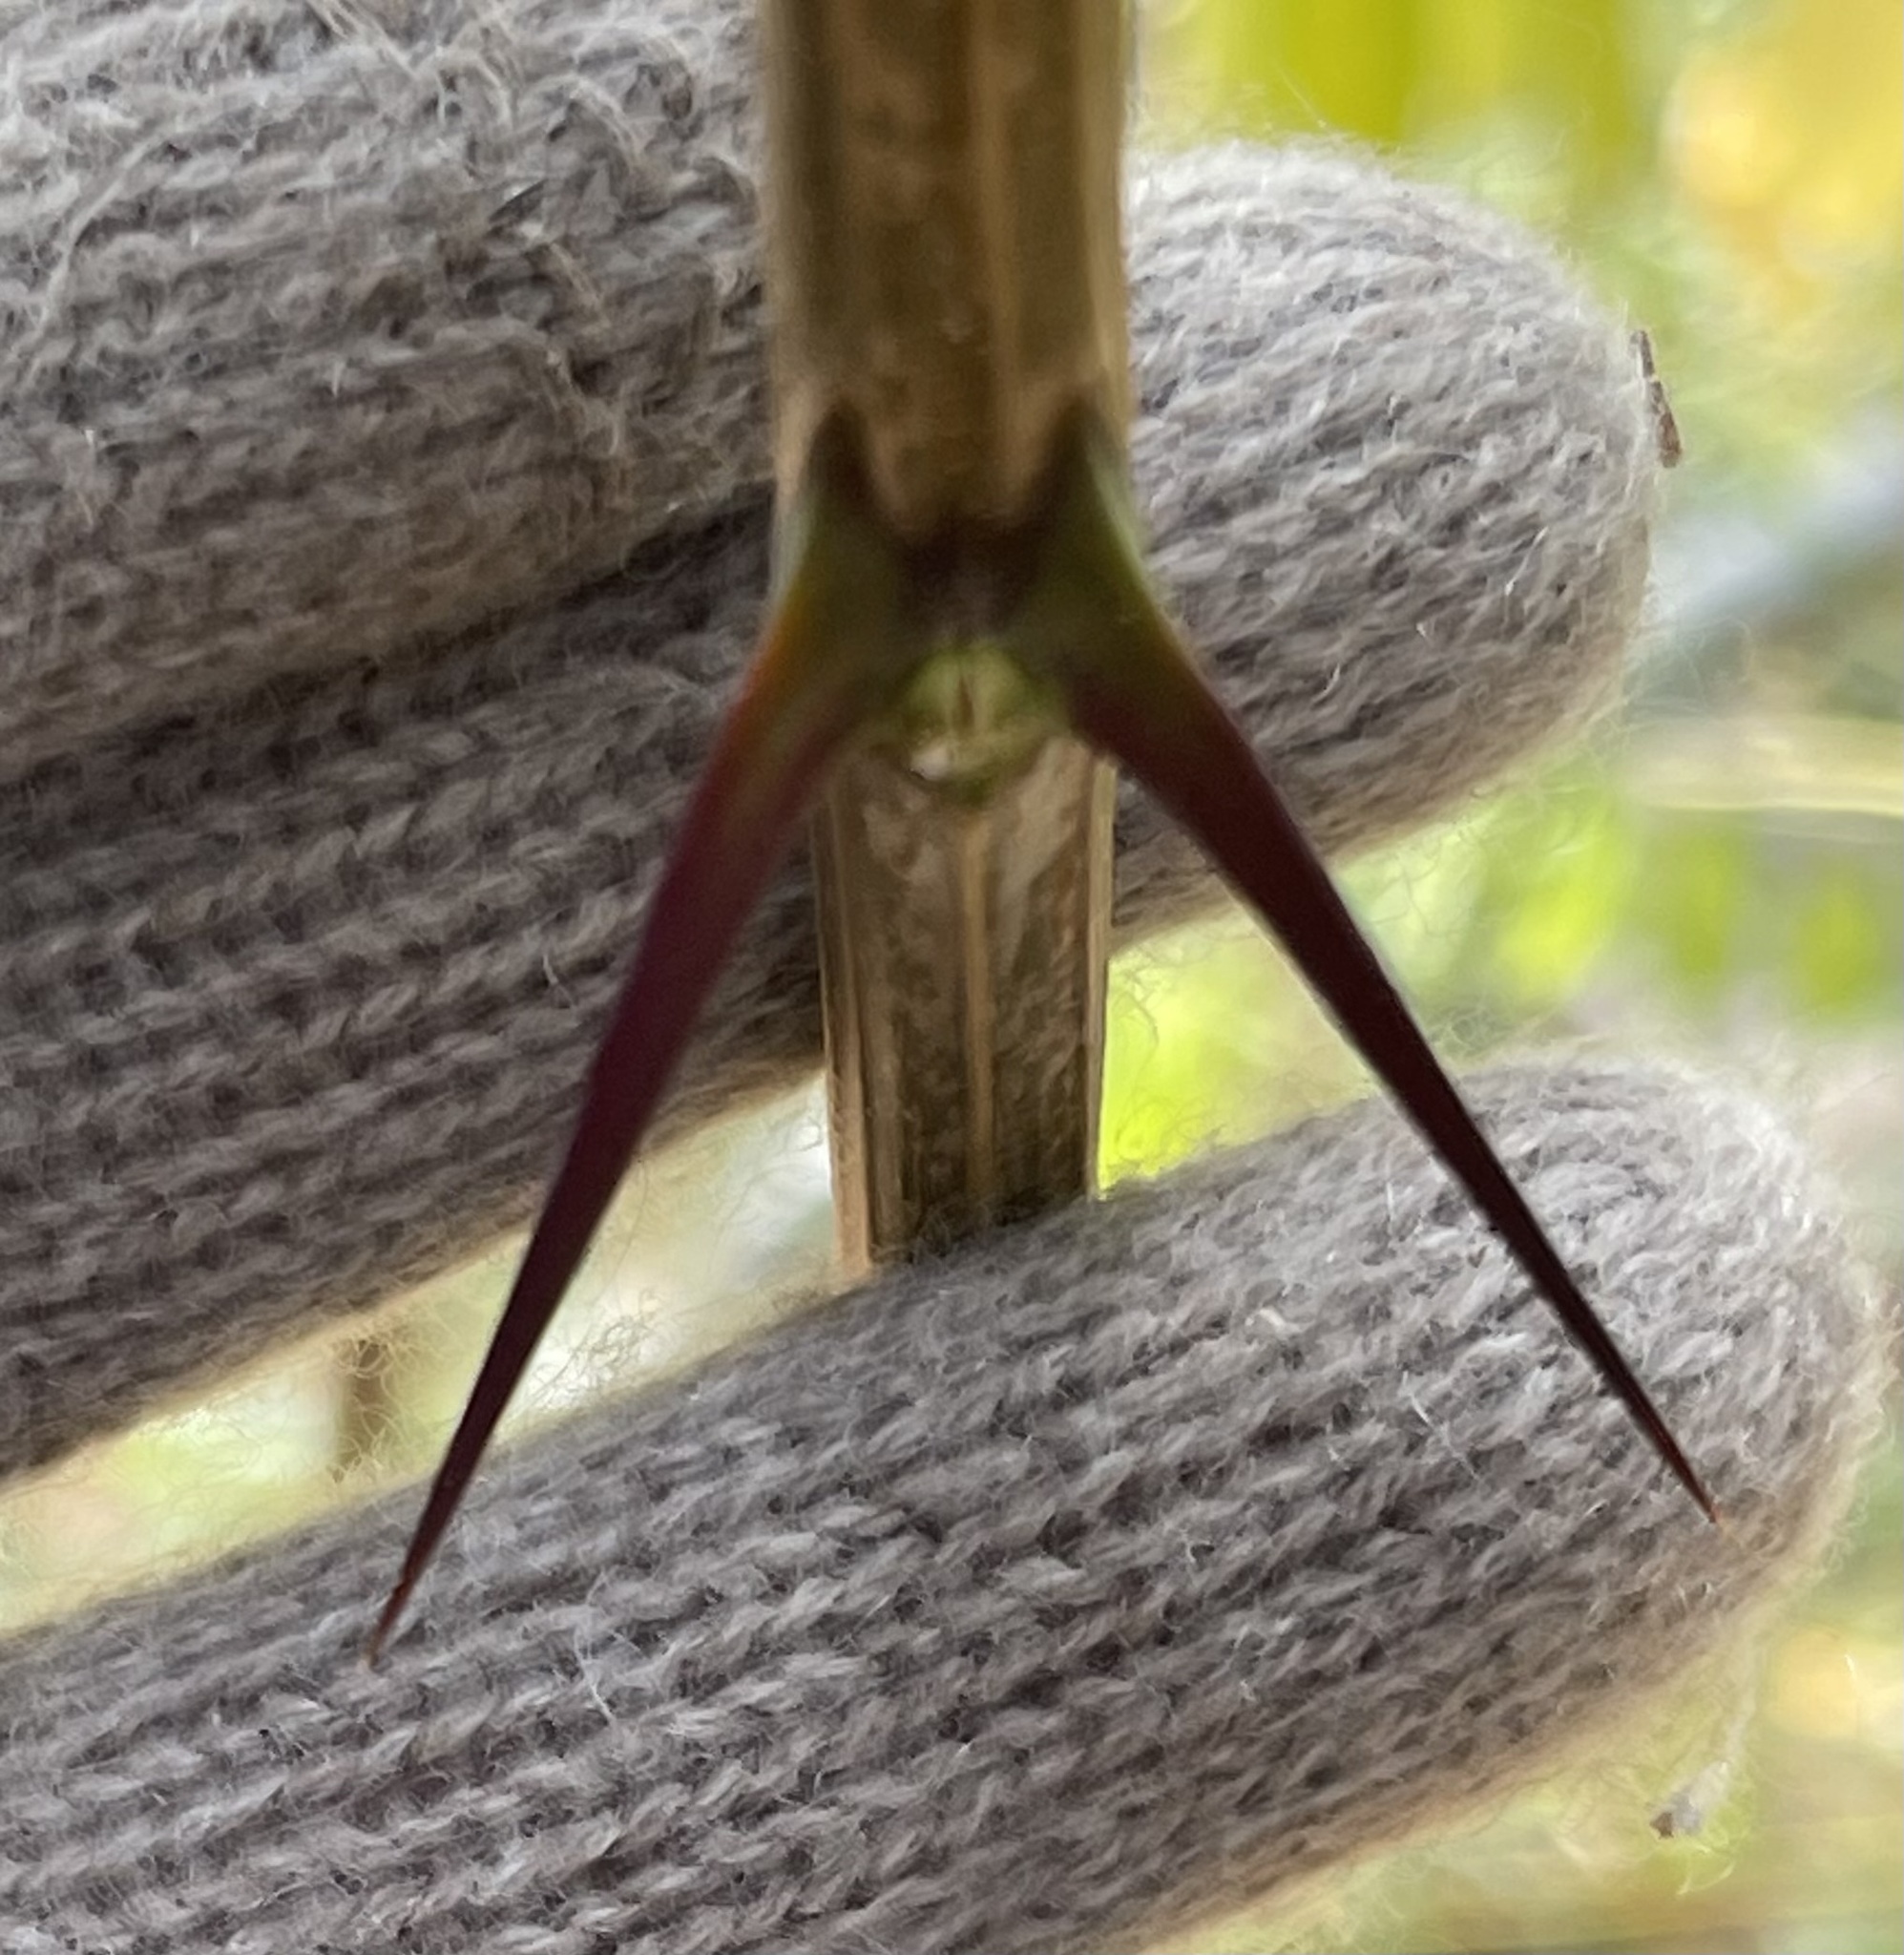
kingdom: Plantae
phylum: Tracheophyta
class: Magnoliopsida
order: Fabales
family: Fabaceae
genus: Robinia
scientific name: Robinia pseudoacacia
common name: Black locust
